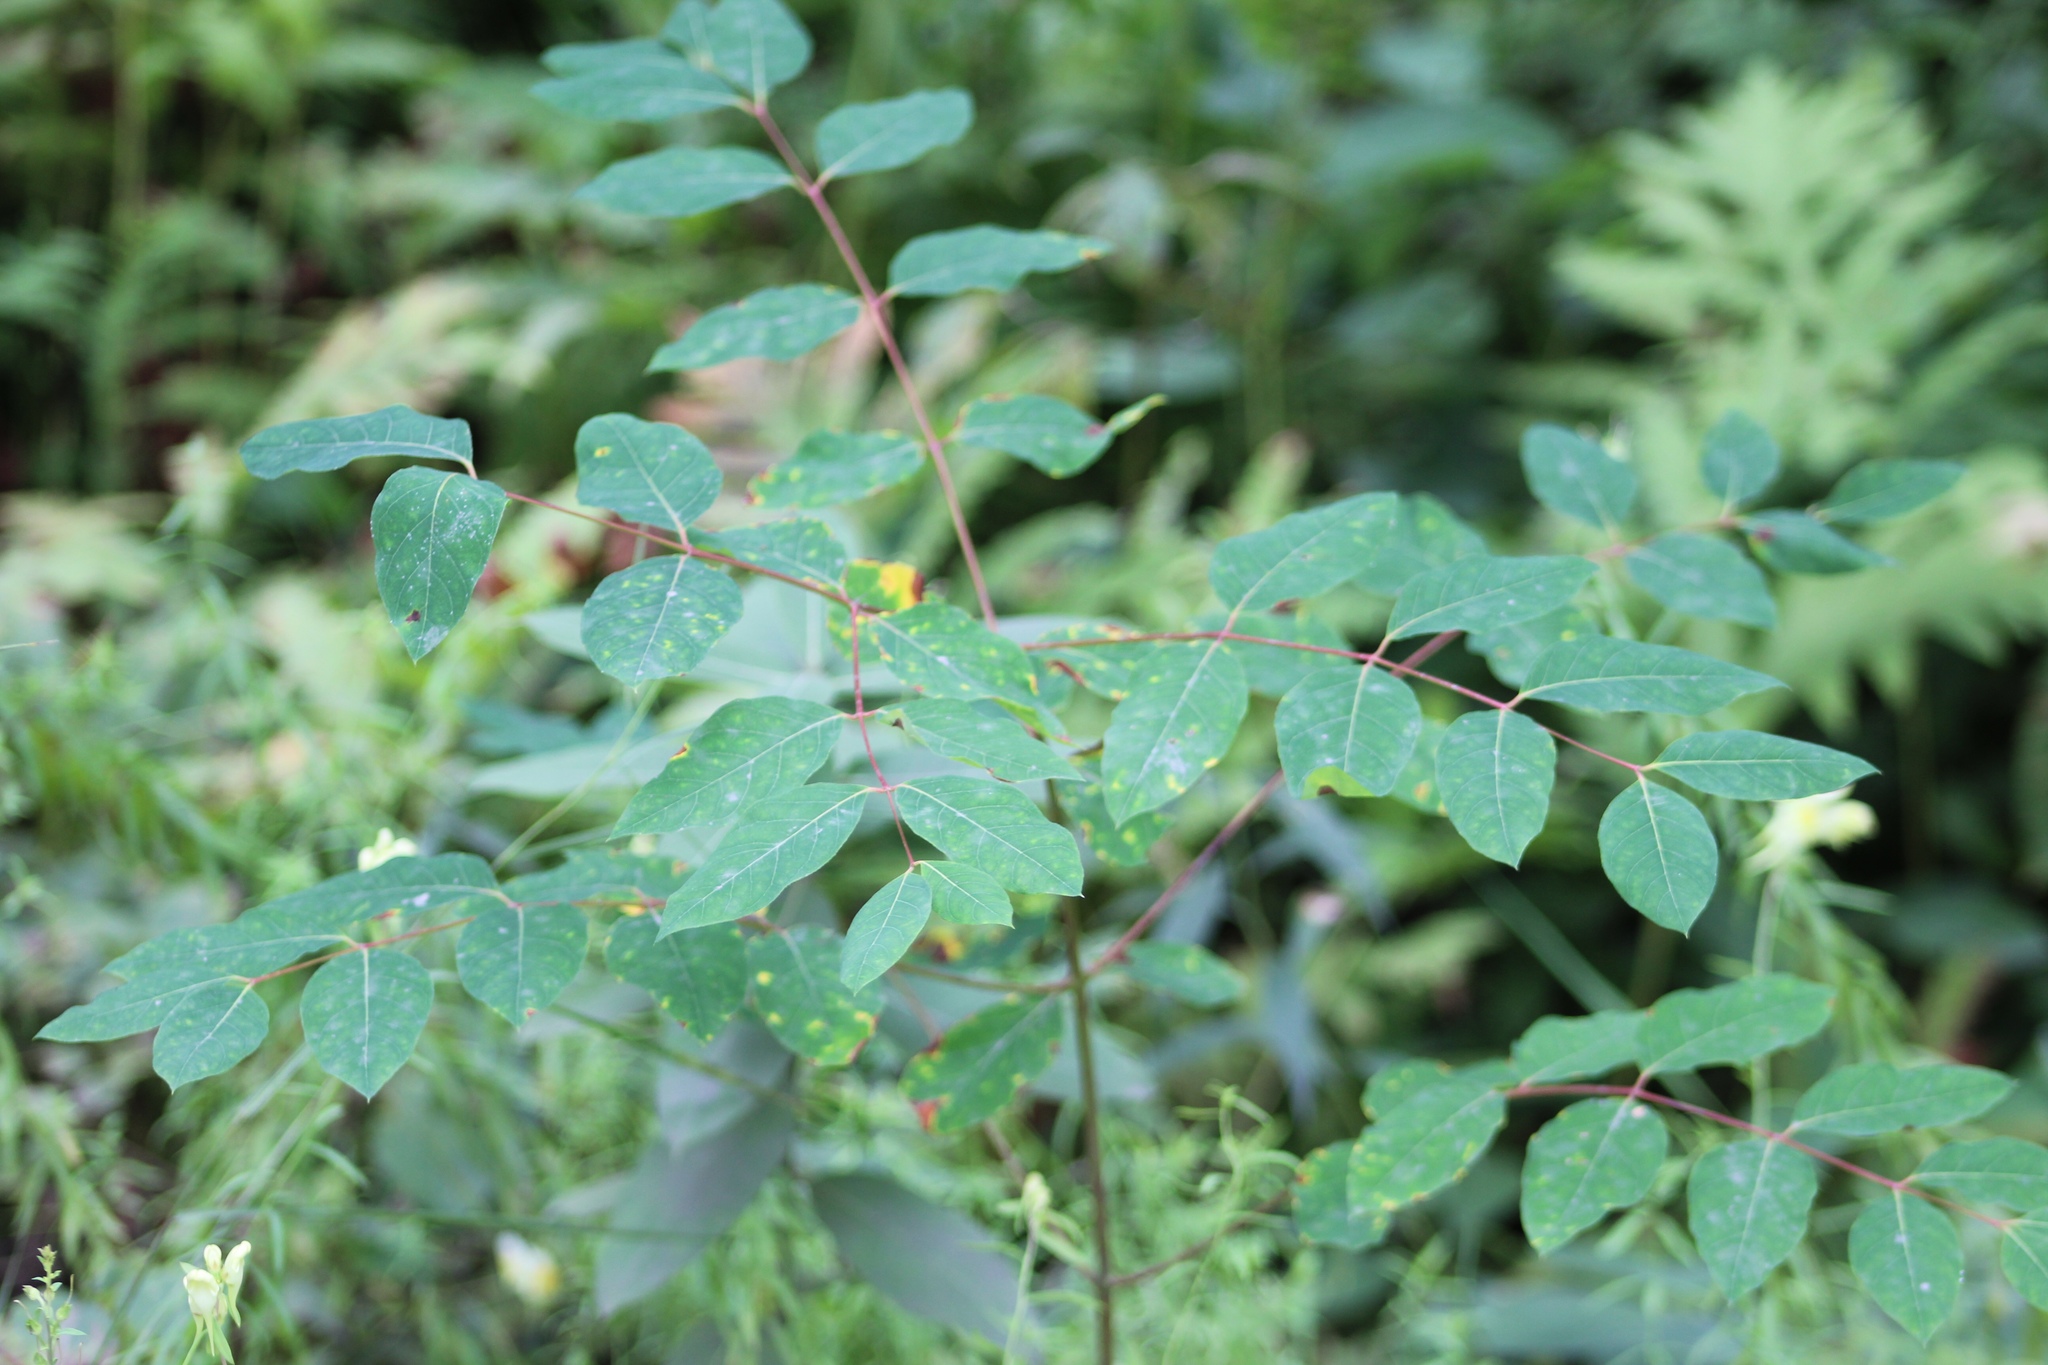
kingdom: Plantae
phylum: Tracheophyta
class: Magnoliopsida
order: Gentianales
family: Apocynaceae
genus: Apocynum
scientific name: Apocynum androsaemifolium
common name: Spreading dogbane
